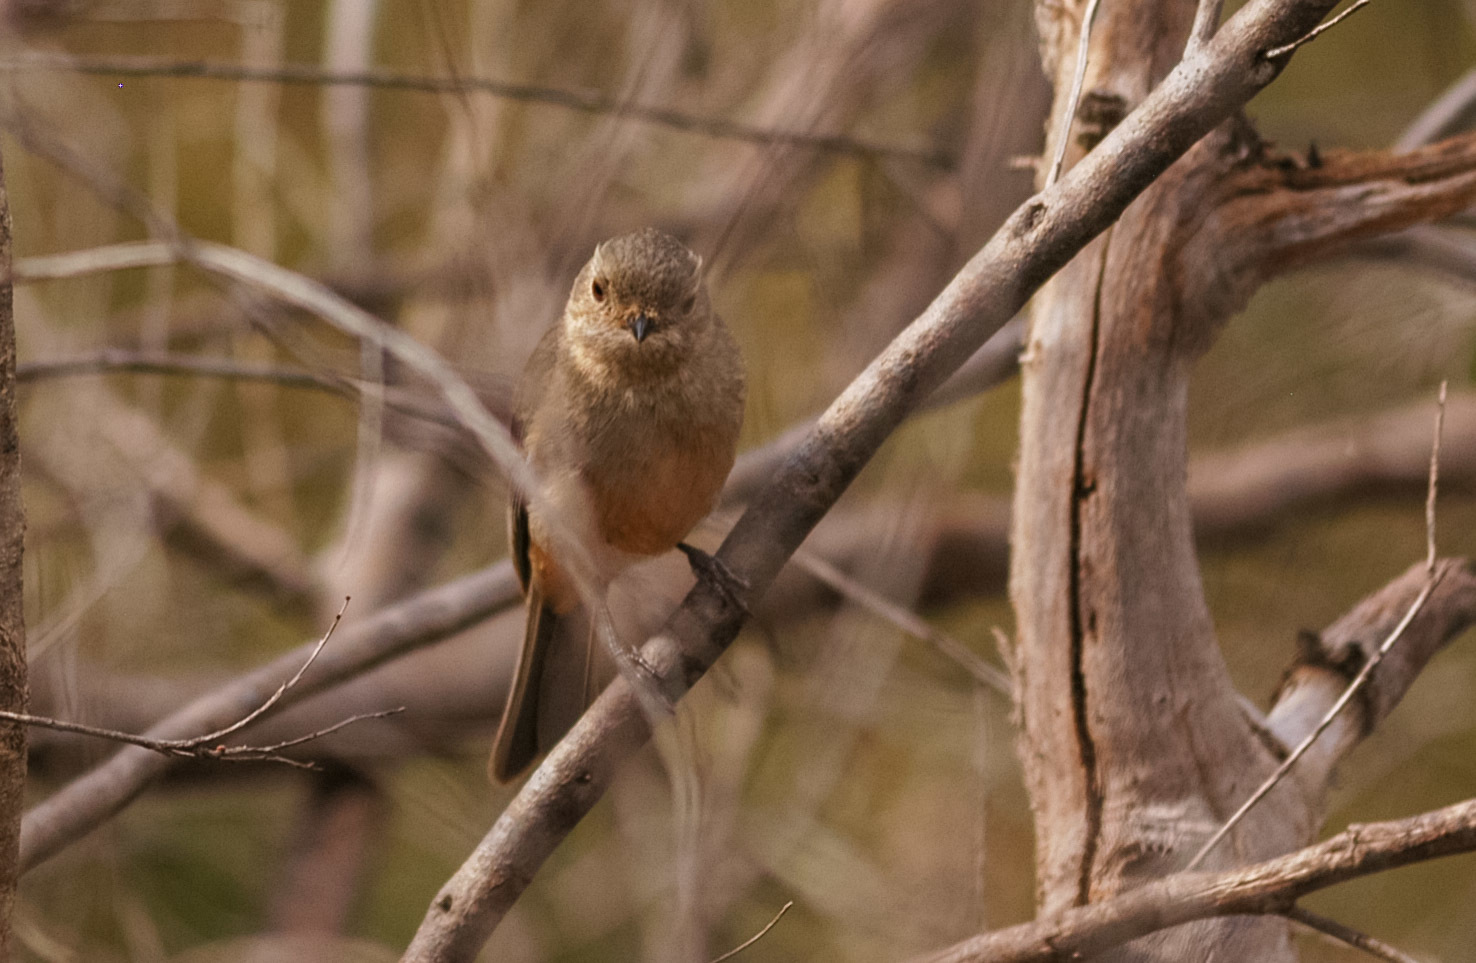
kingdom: Animalia
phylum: Chordata
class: Aves
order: Passeriformes
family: Pachycephalidae
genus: Pachycephala
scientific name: Pachycephala fuliginosa
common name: Western whistler
